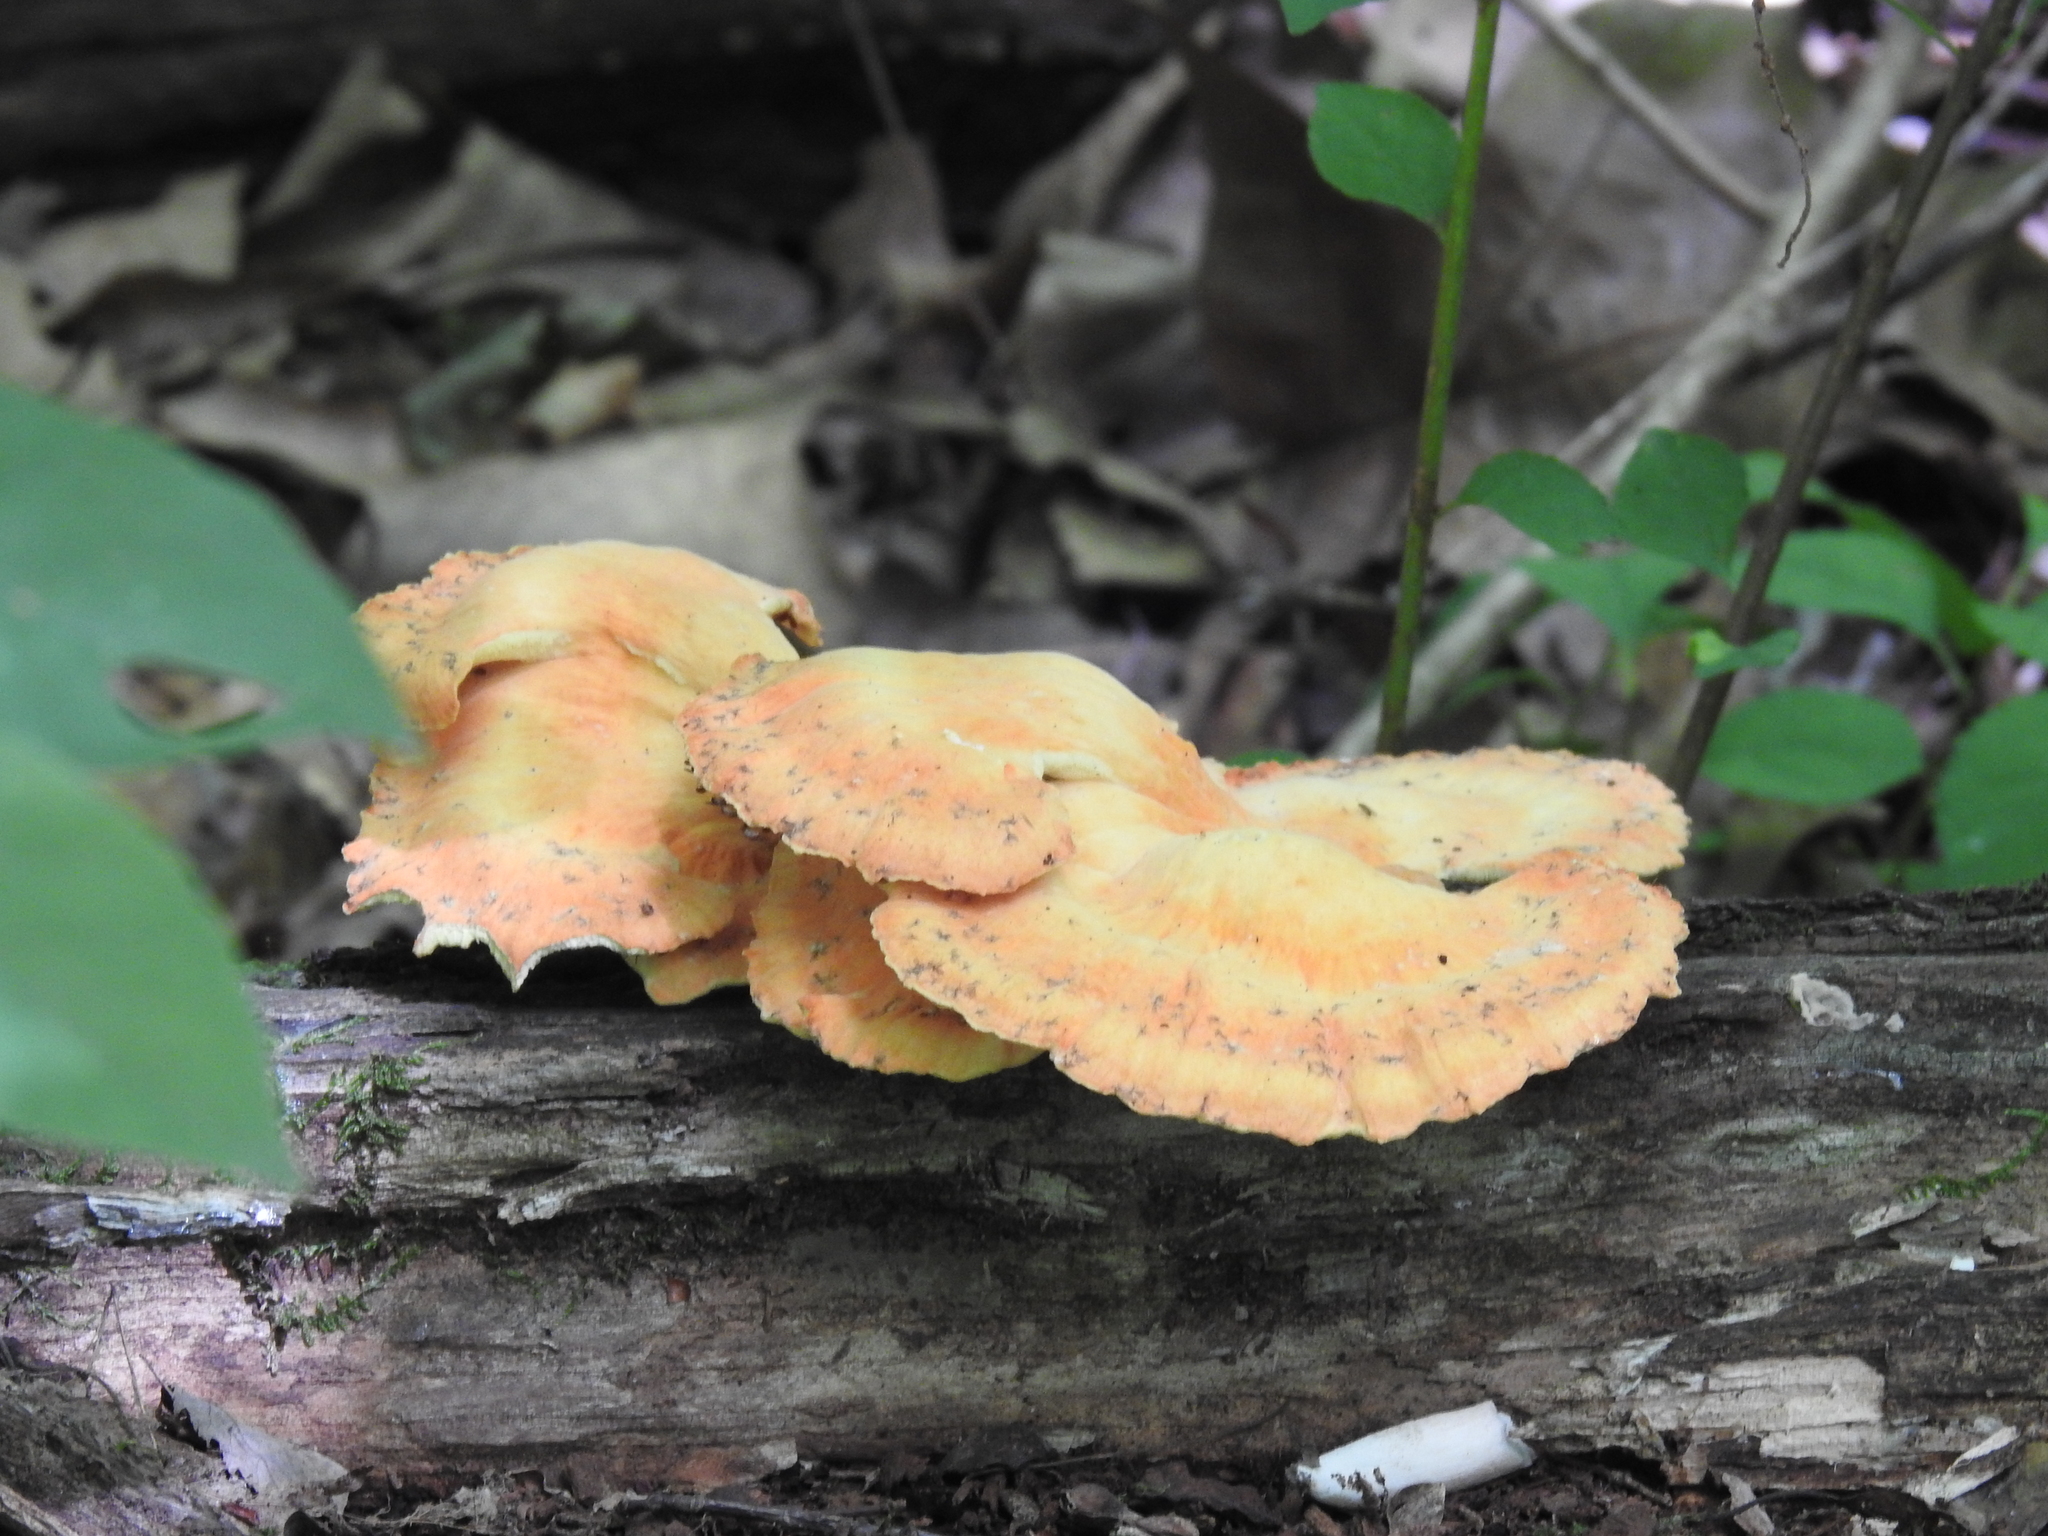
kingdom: Fungi
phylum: Basidiomycota
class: Agaricomycetes
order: Polyporales
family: Laetiporaceae
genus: Laetiporus
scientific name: Laetiporus sulphureus
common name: Chicken of the woods
